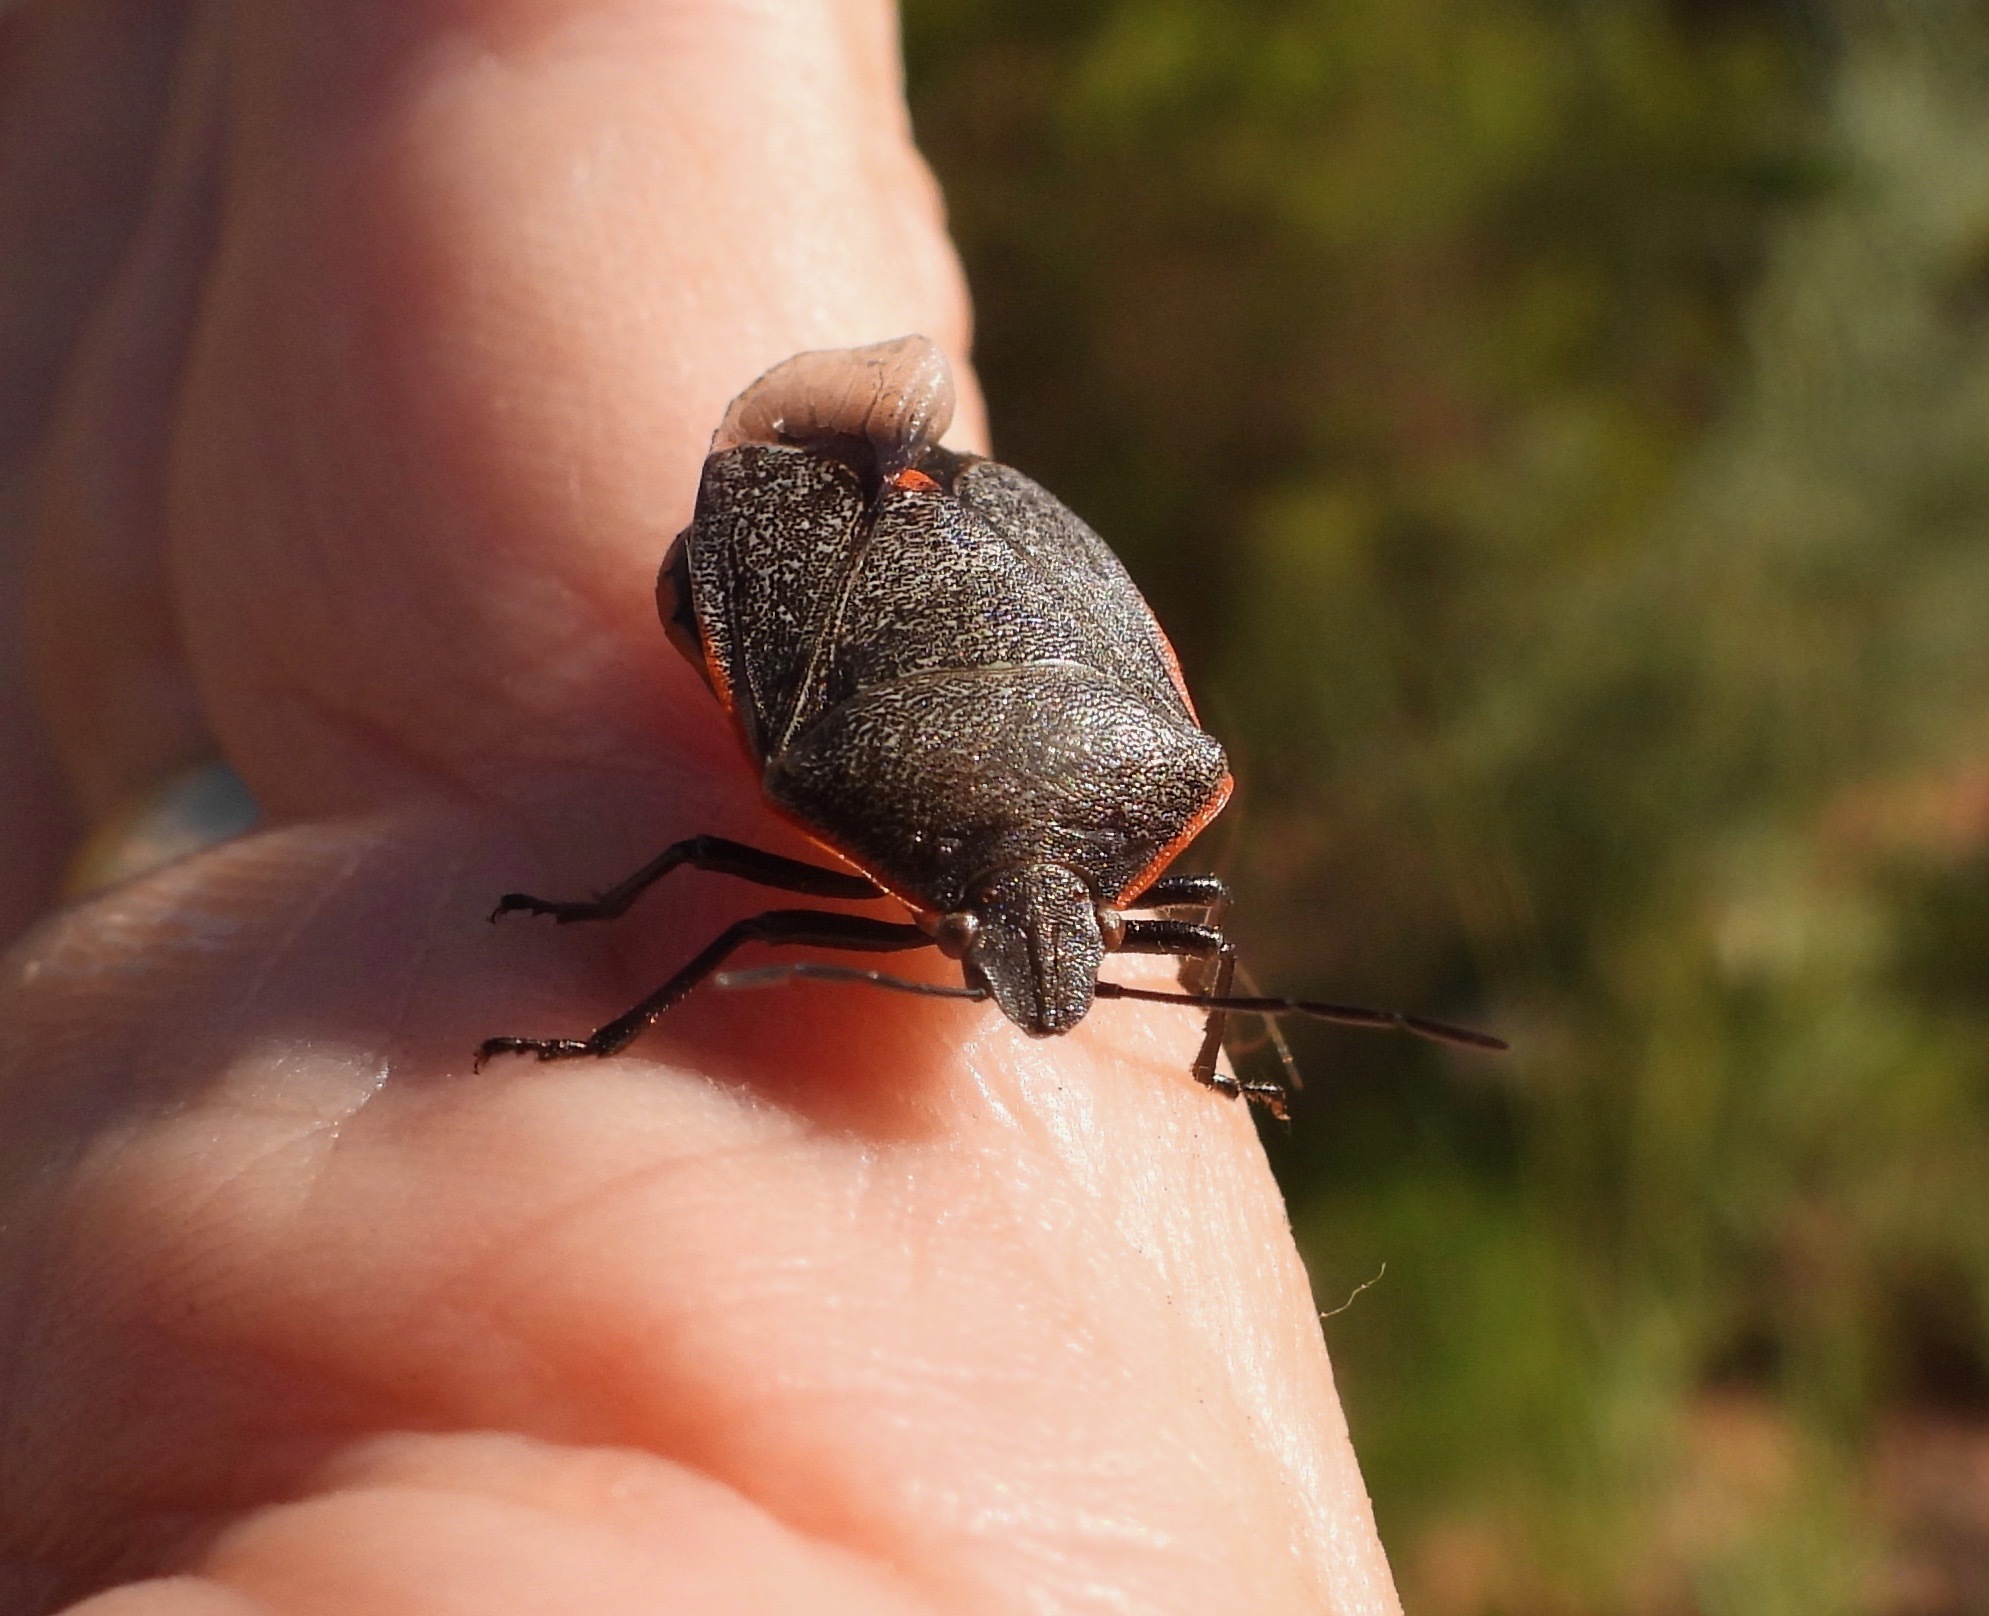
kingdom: Animalia
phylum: Arthropoda
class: Insecta
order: Hemiptera
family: Pentatomidae
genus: Chlorochroa
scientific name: Chlorochroa ligata
